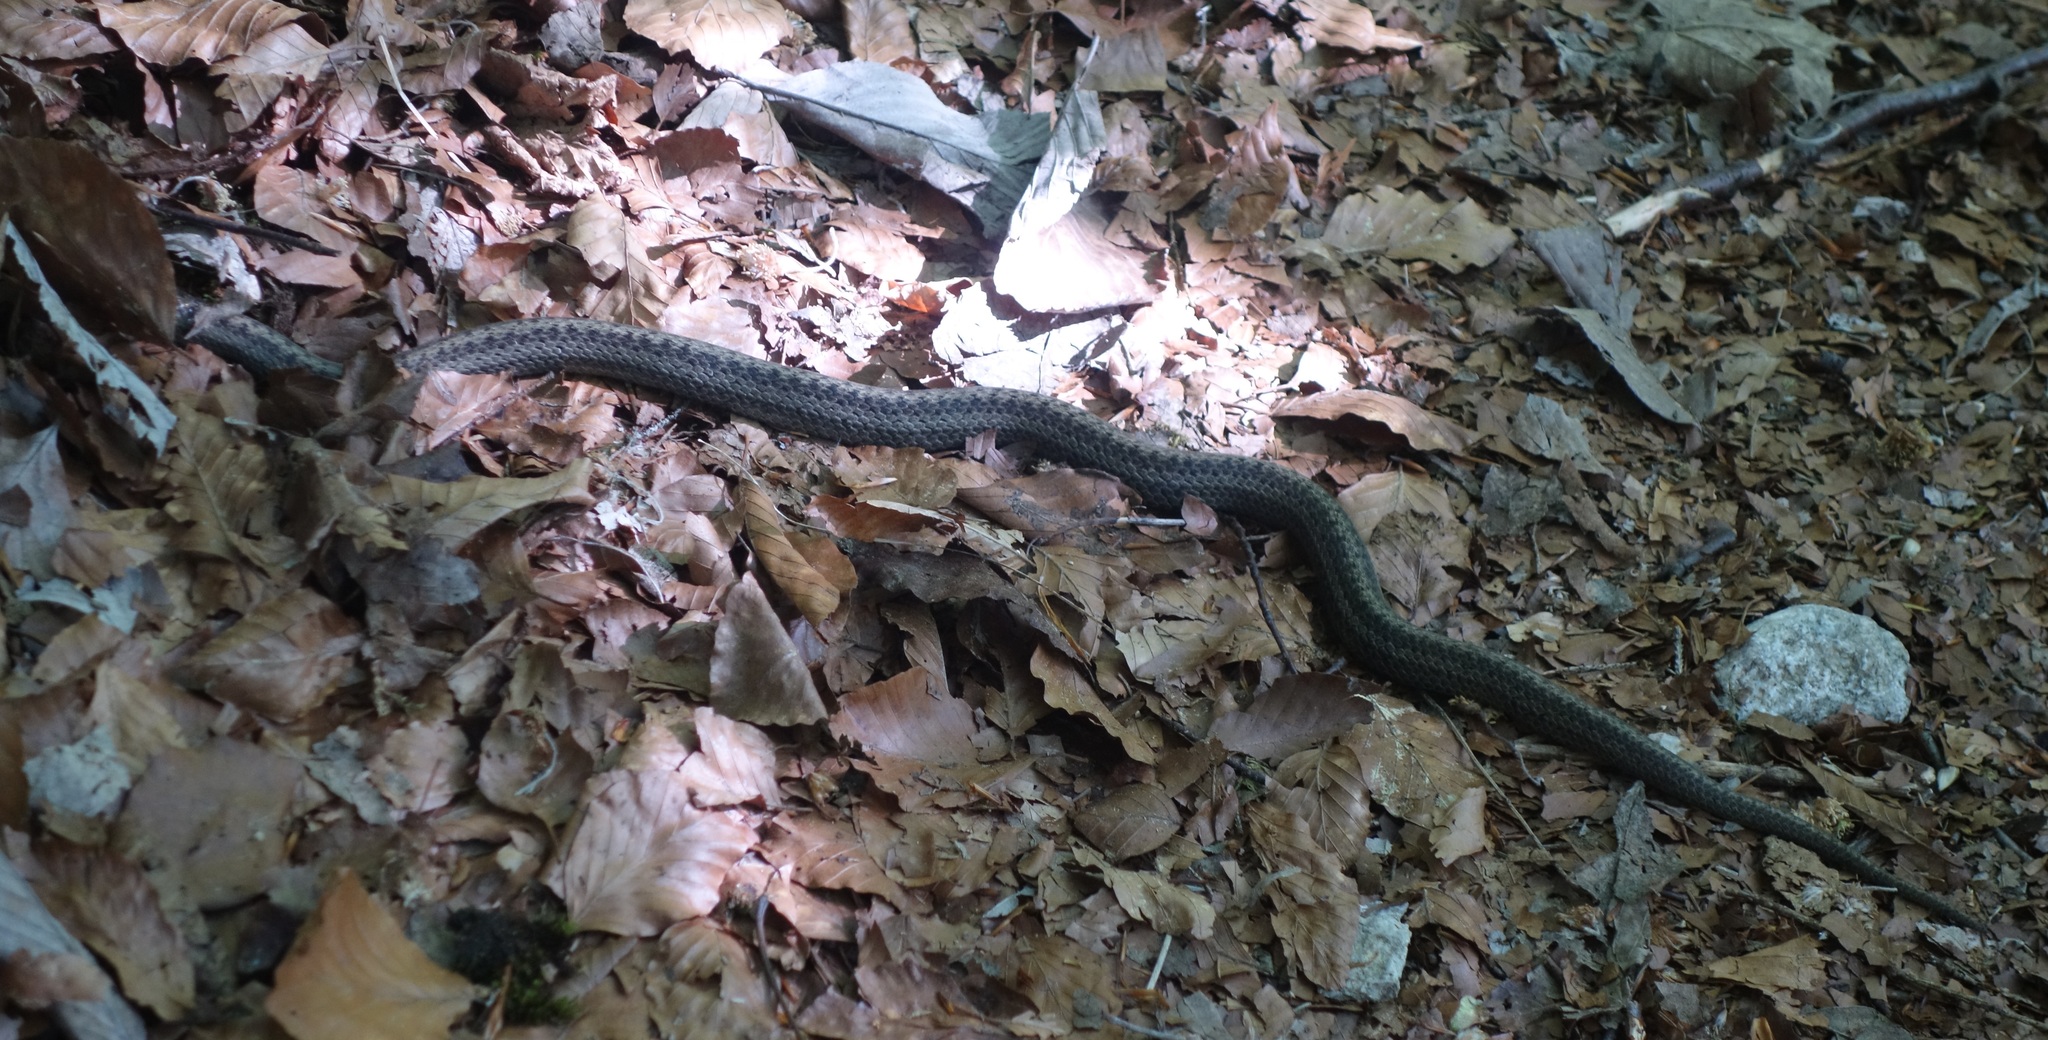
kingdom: Animalia
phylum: Chordata
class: Squamata
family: Colubridae
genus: Coronella
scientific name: Coronella austriaca
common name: Smooth snake
